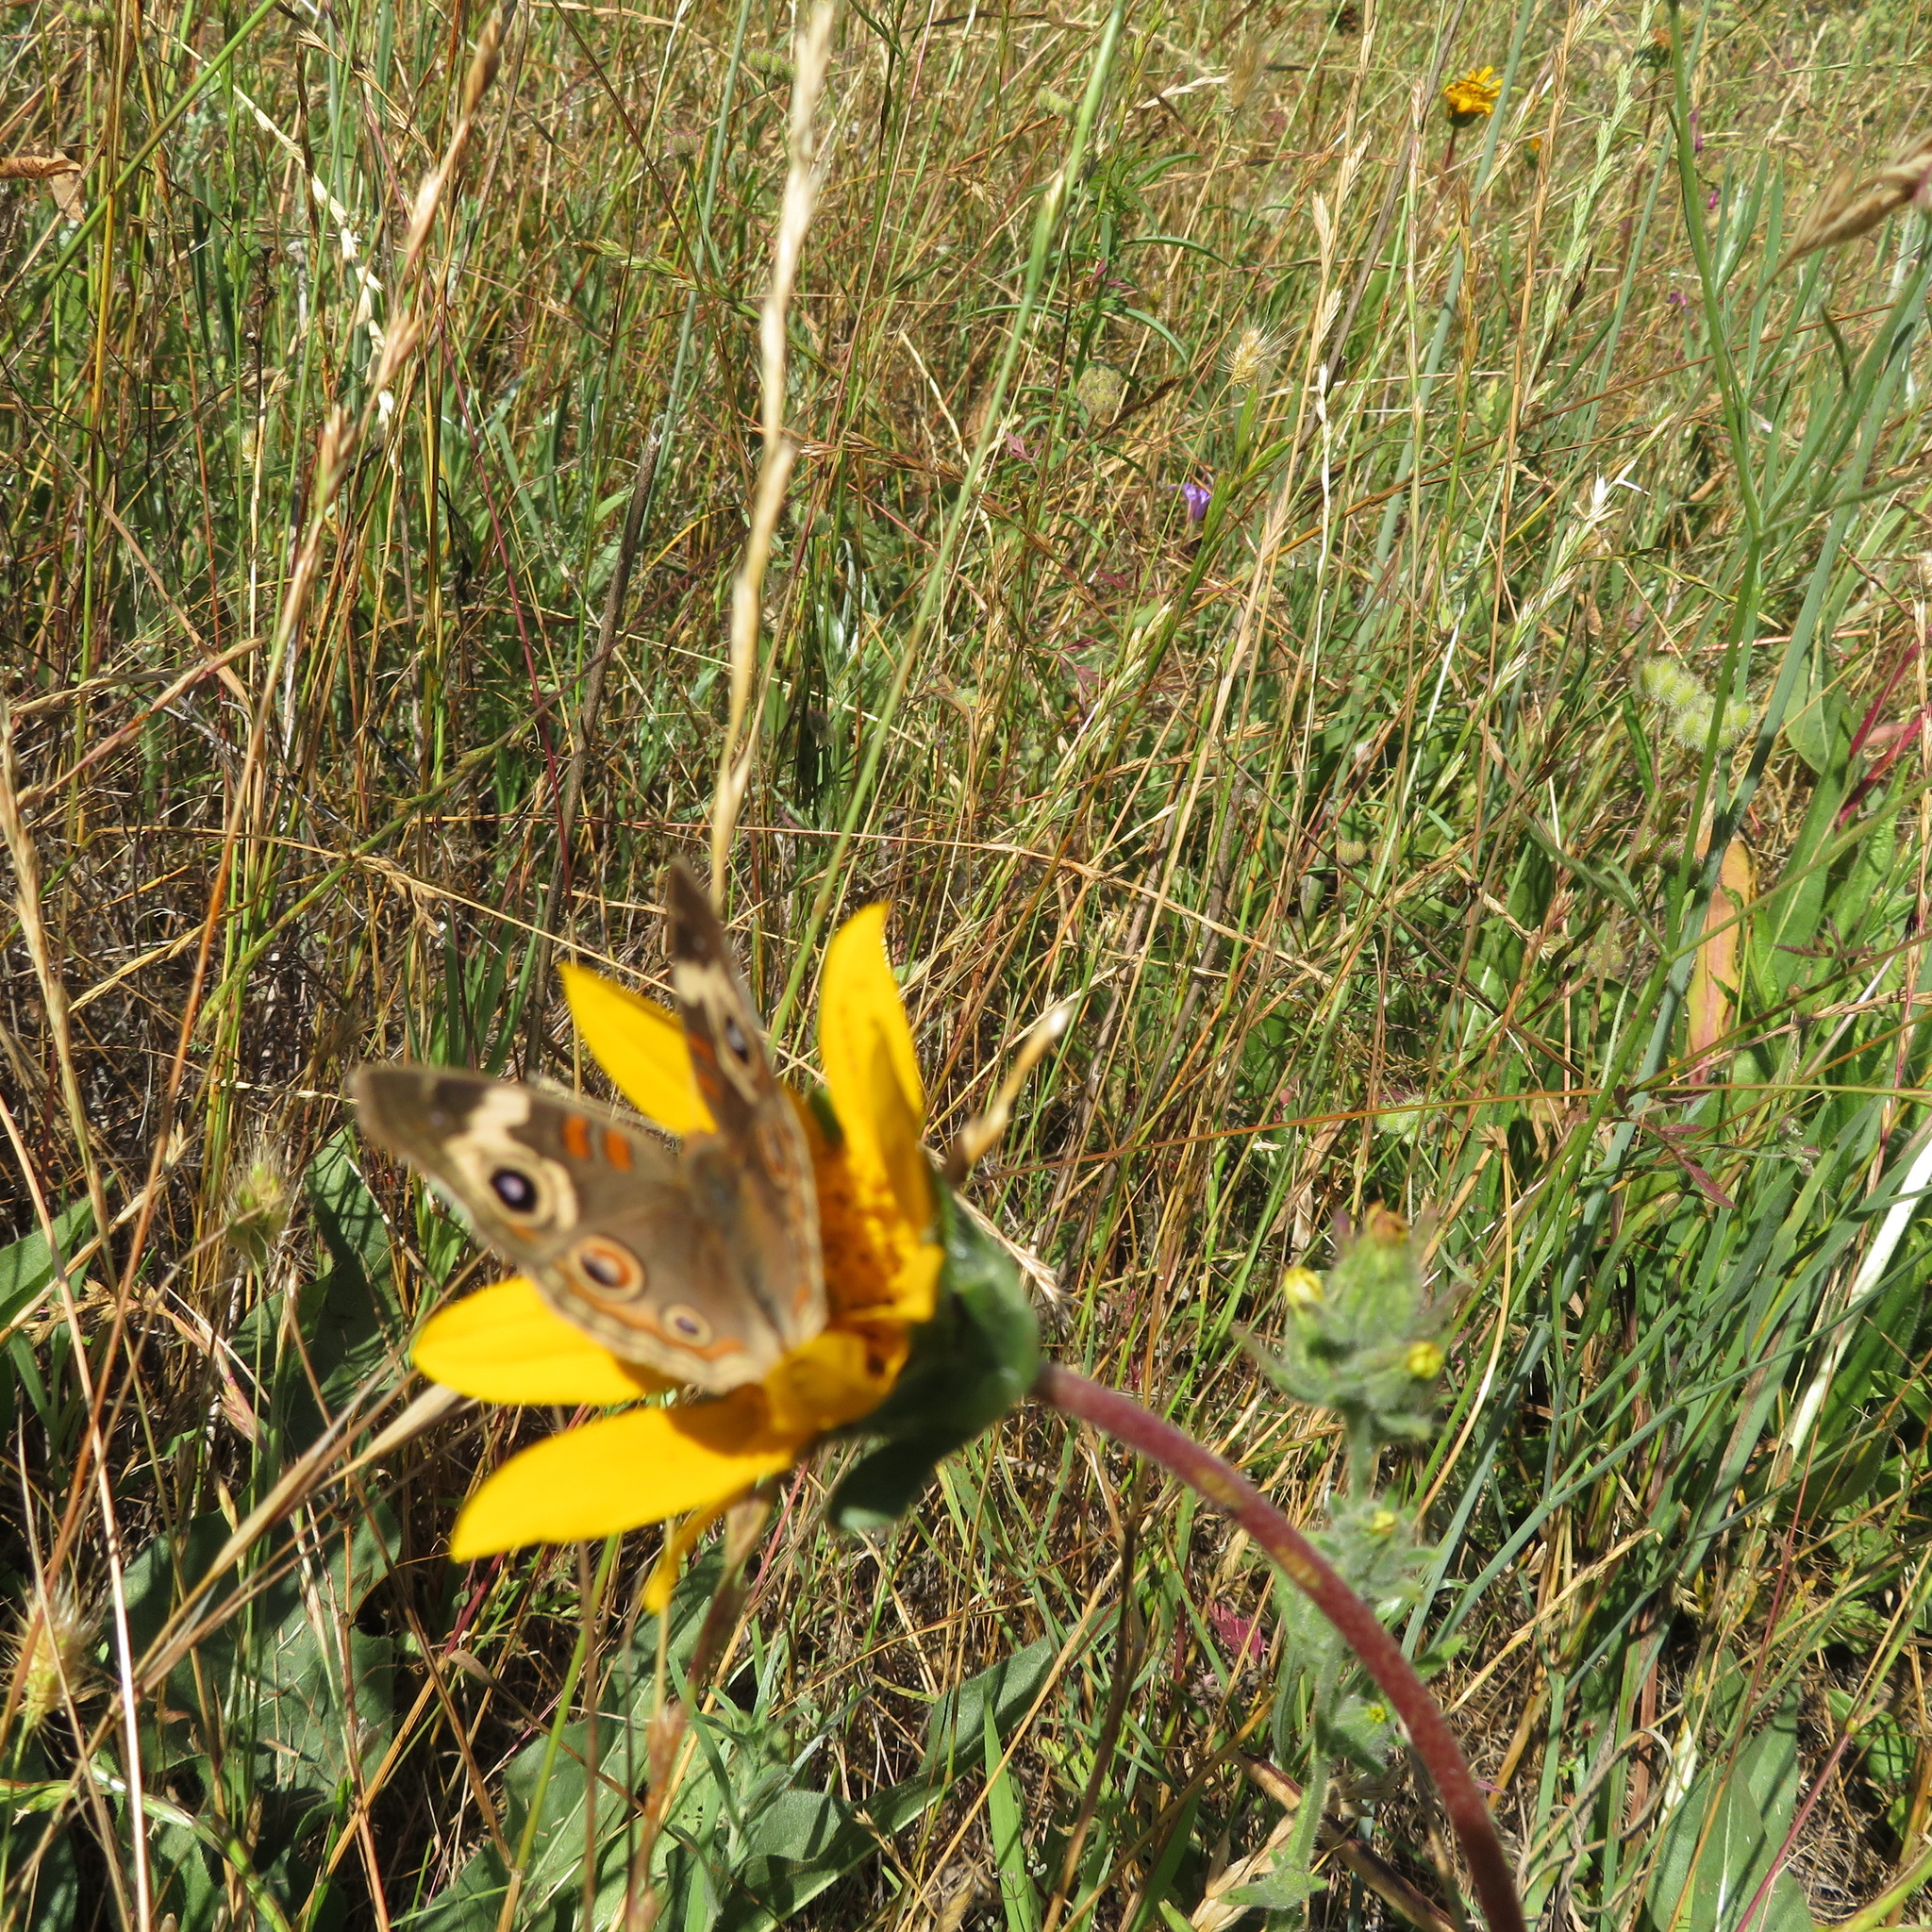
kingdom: Animalia
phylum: Arthropoda
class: Insecta
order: Lepidoptera
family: Nymphalidae
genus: Junonia
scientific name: Junonia grisea
